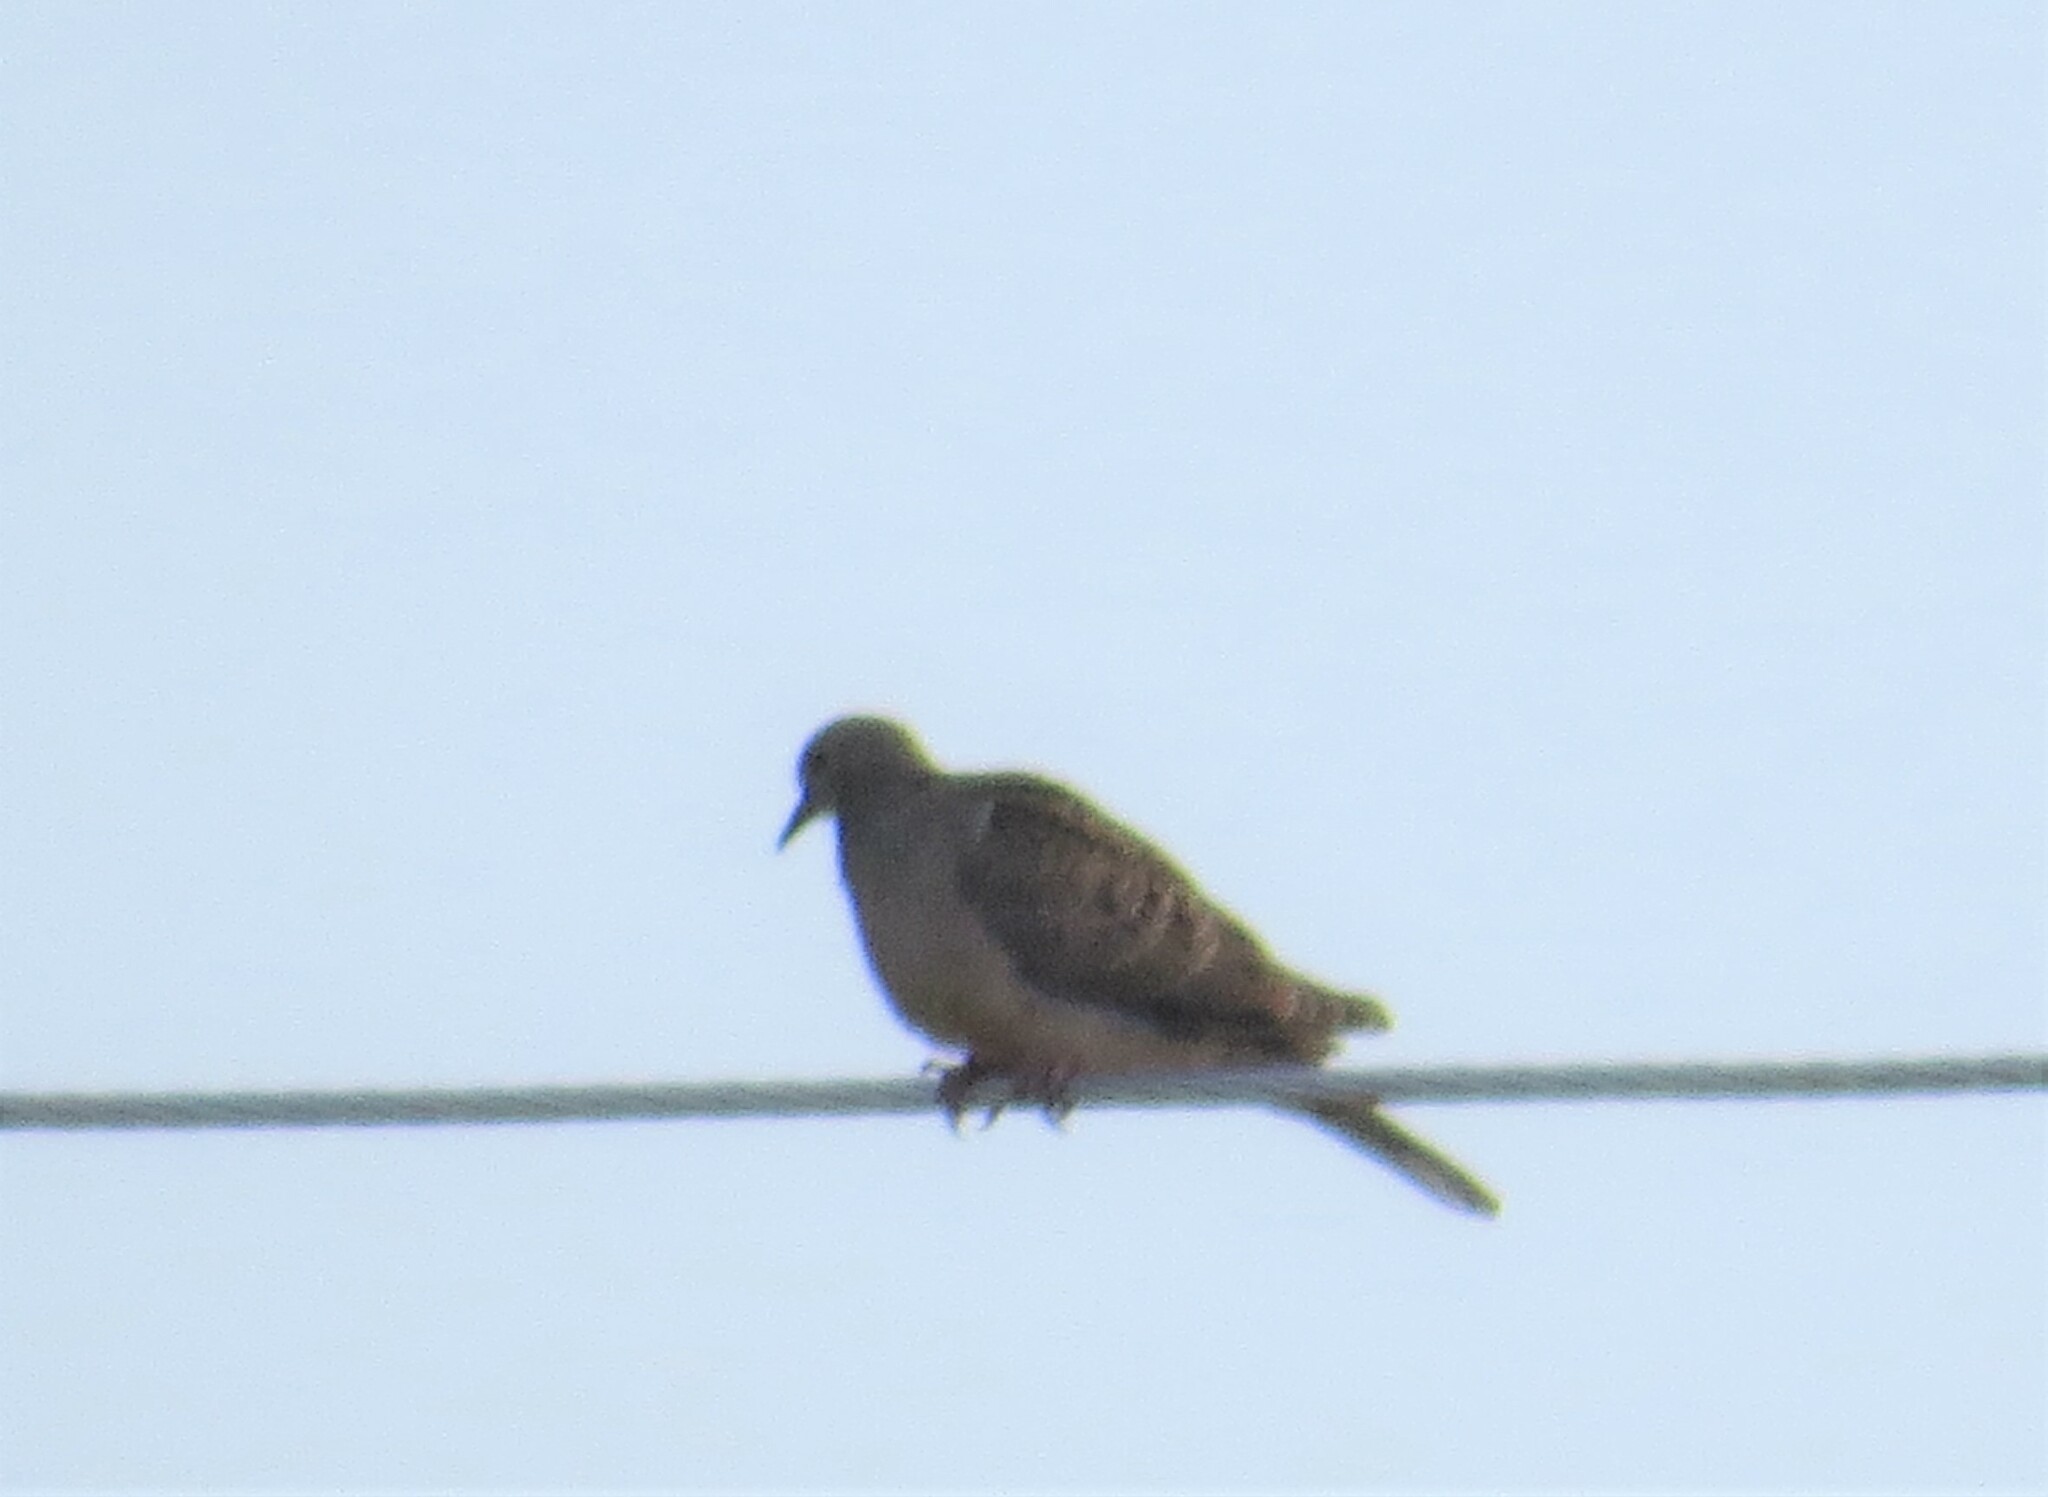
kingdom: Animalia
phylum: Chordata
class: Aves
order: Columbiformes
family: Columbidae
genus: Zenaida
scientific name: Zenaida macroura
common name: Mourning dove
